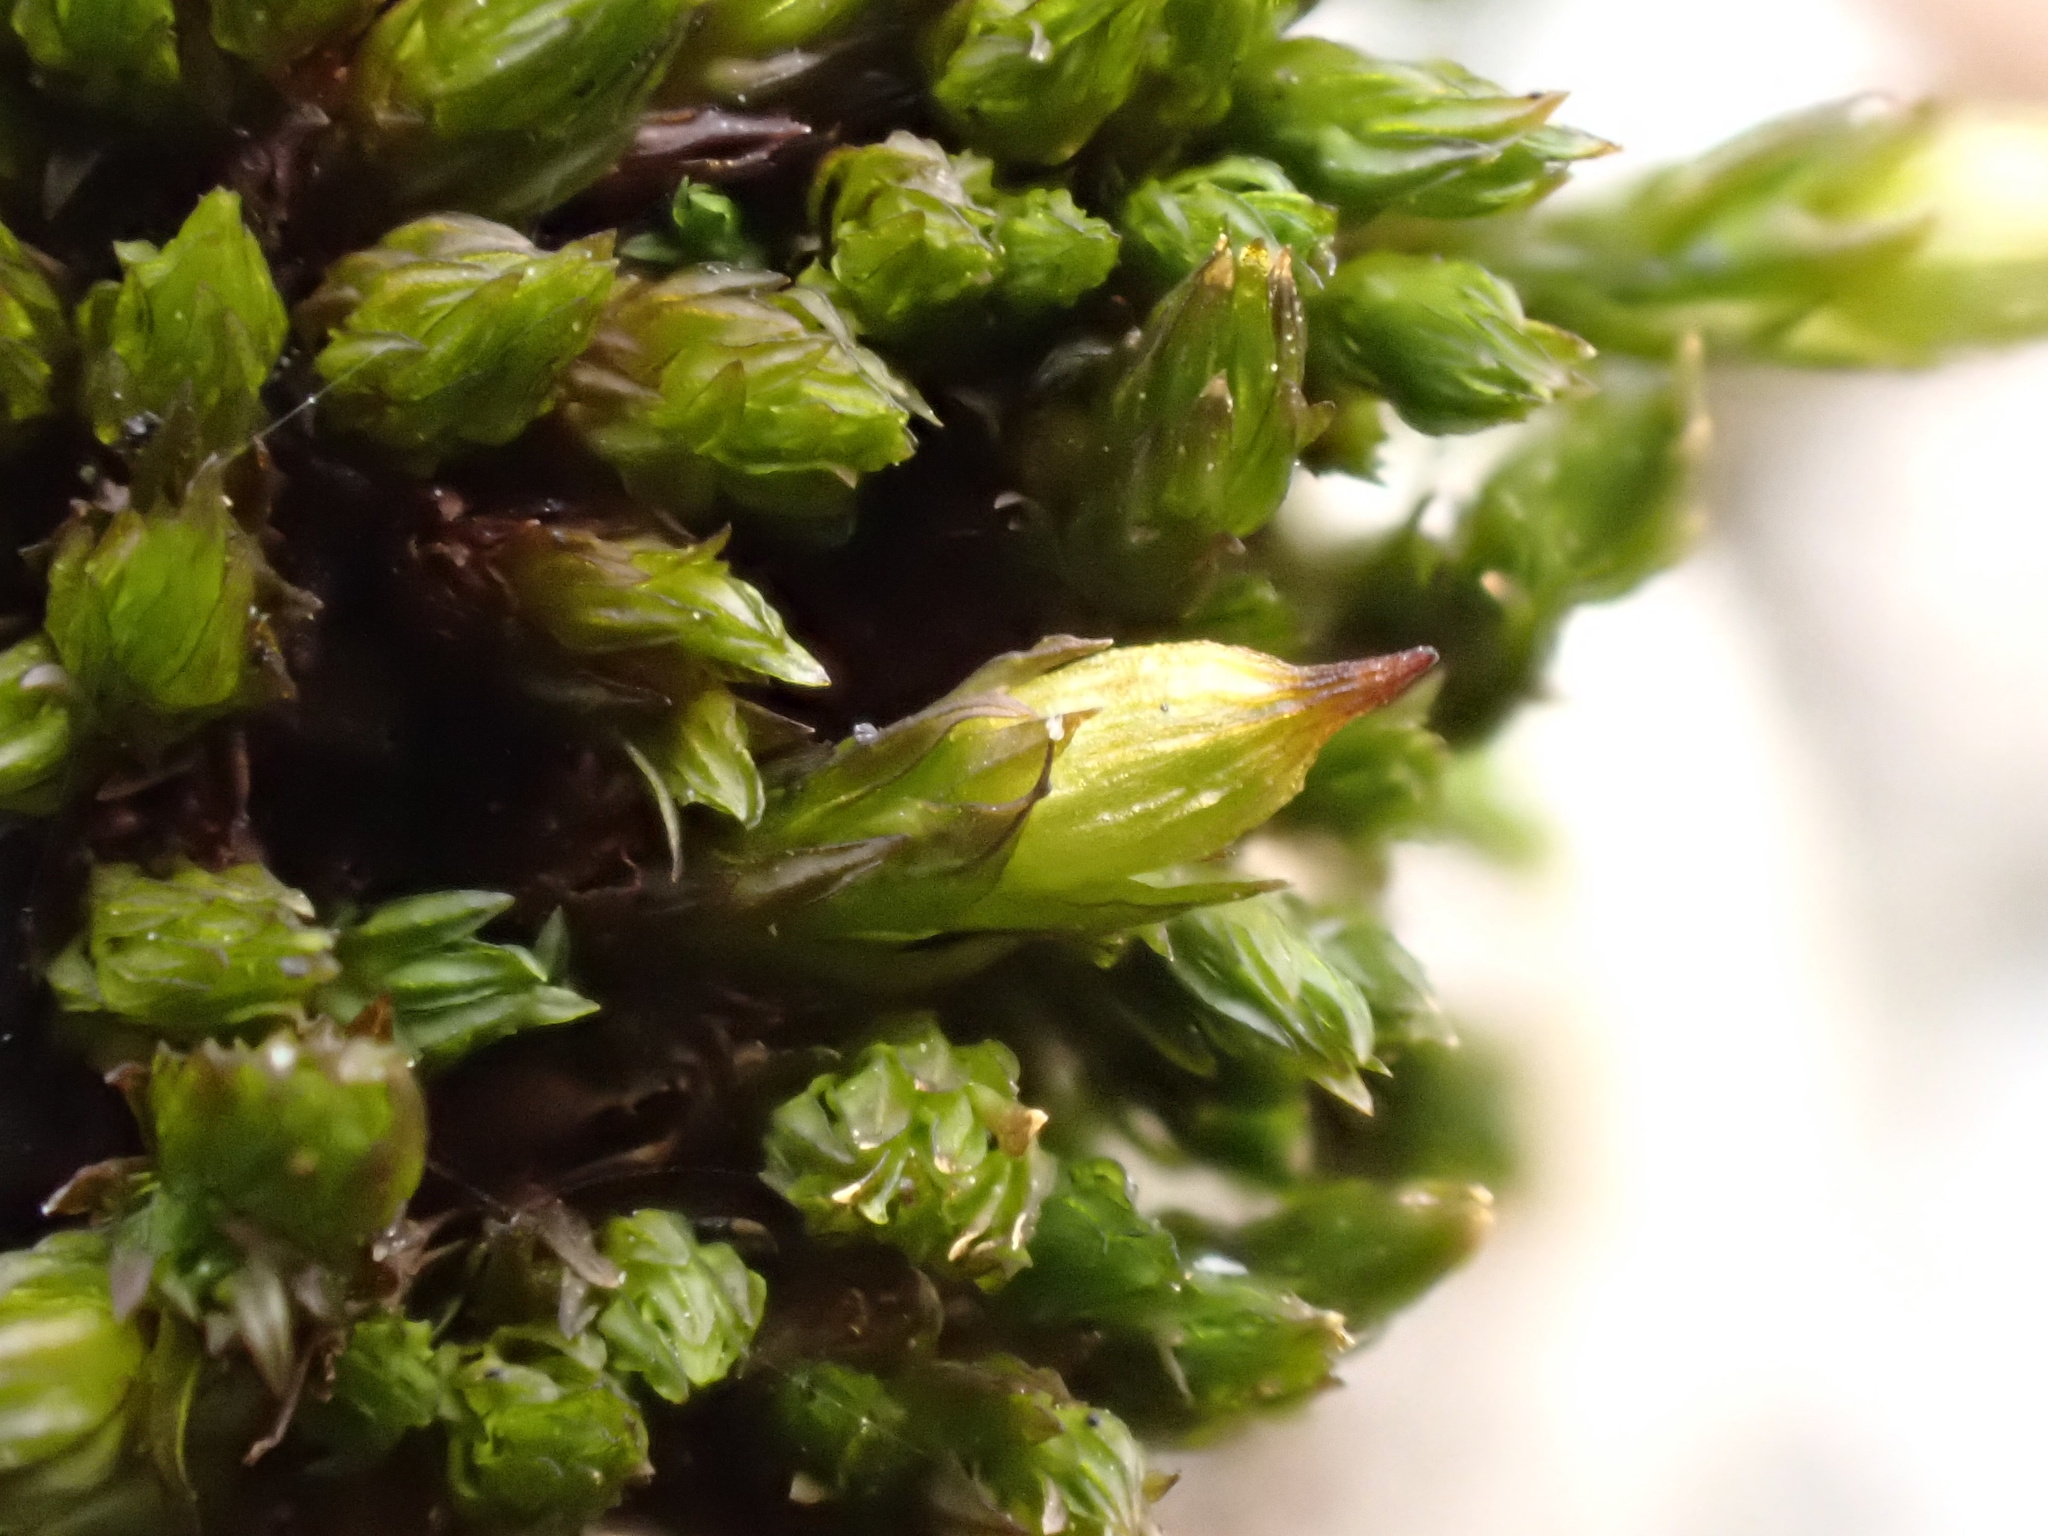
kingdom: Plantae
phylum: Bryophyta
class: Bryopsida
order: Orthotrichales
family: Orthotrichaceae
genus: Orthotrichum
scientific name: Orthotrichum tenellum
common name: Slender bristle-moss
